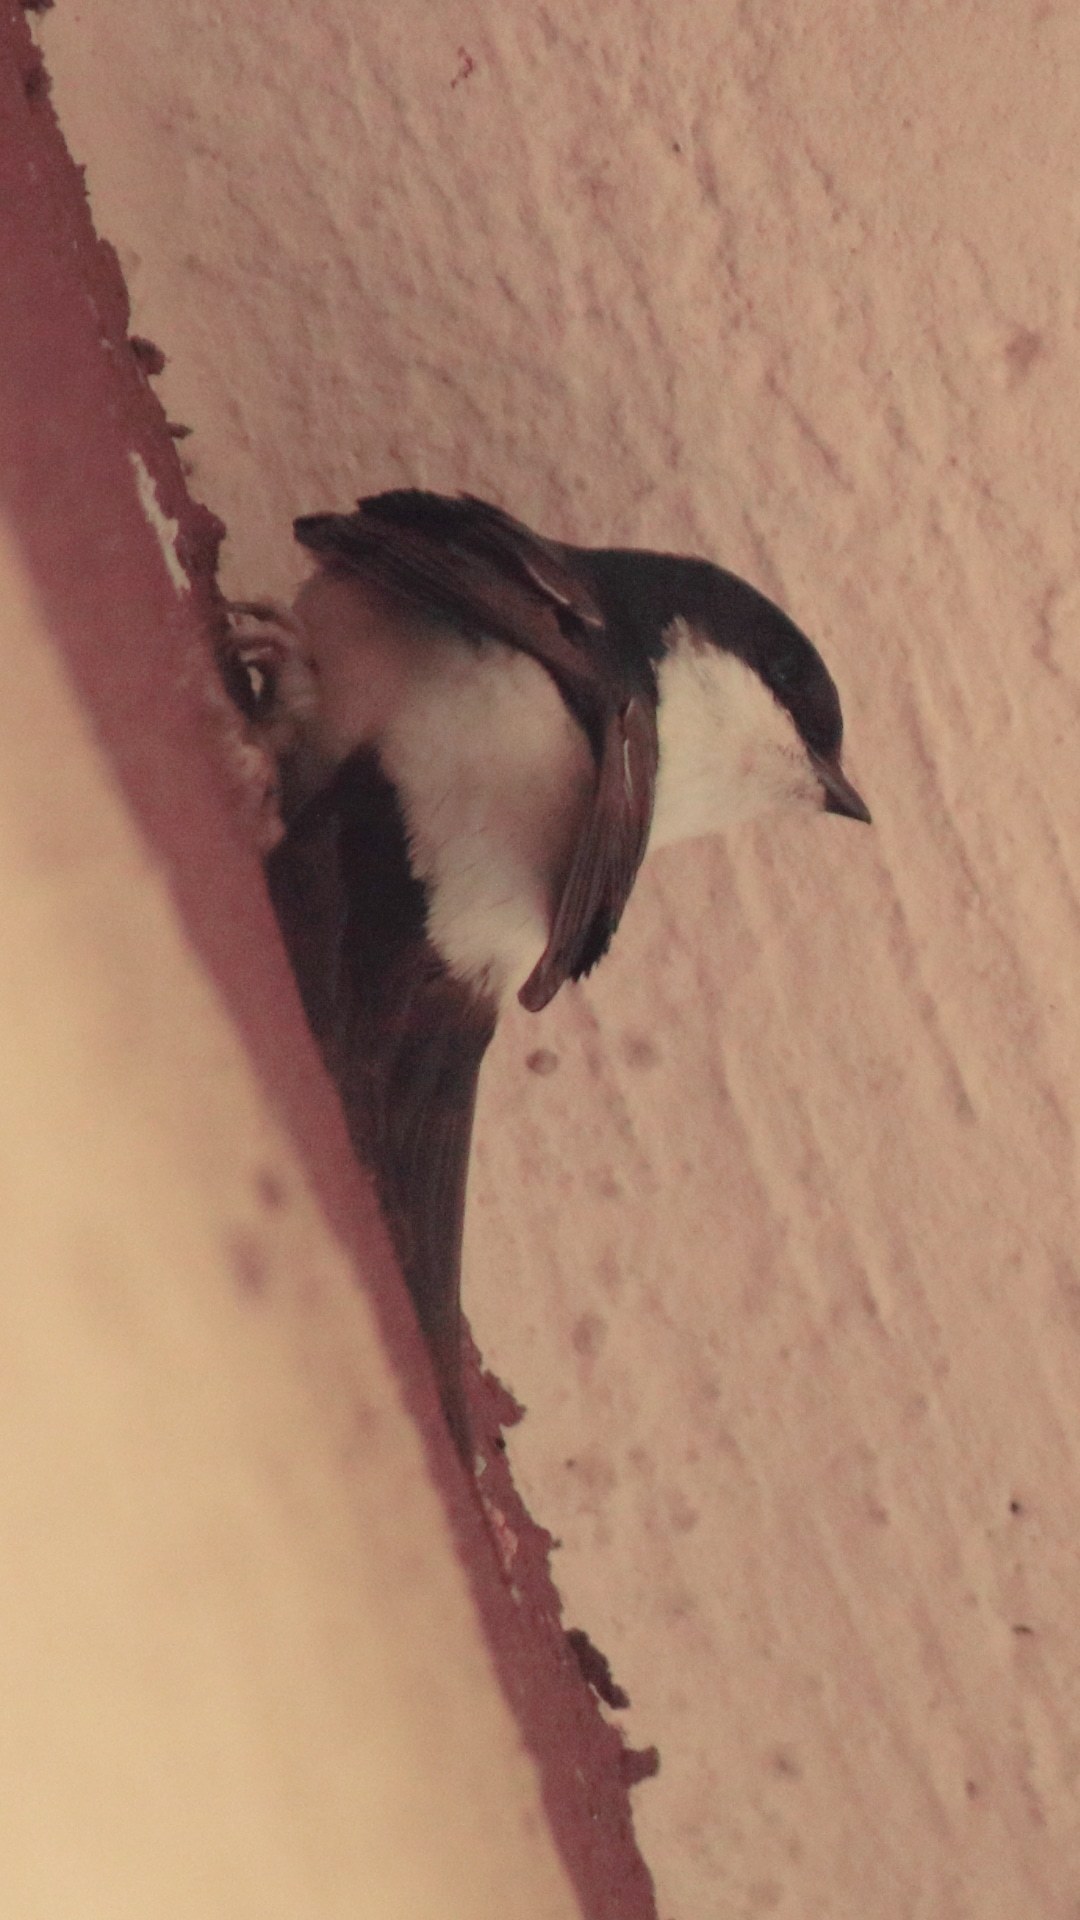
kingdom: Animalia
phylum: Chordata
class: Aves
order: Passeriformes
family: Hirundinidae
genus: Delichon
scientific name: Delichon urbicum
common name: Common house martin
